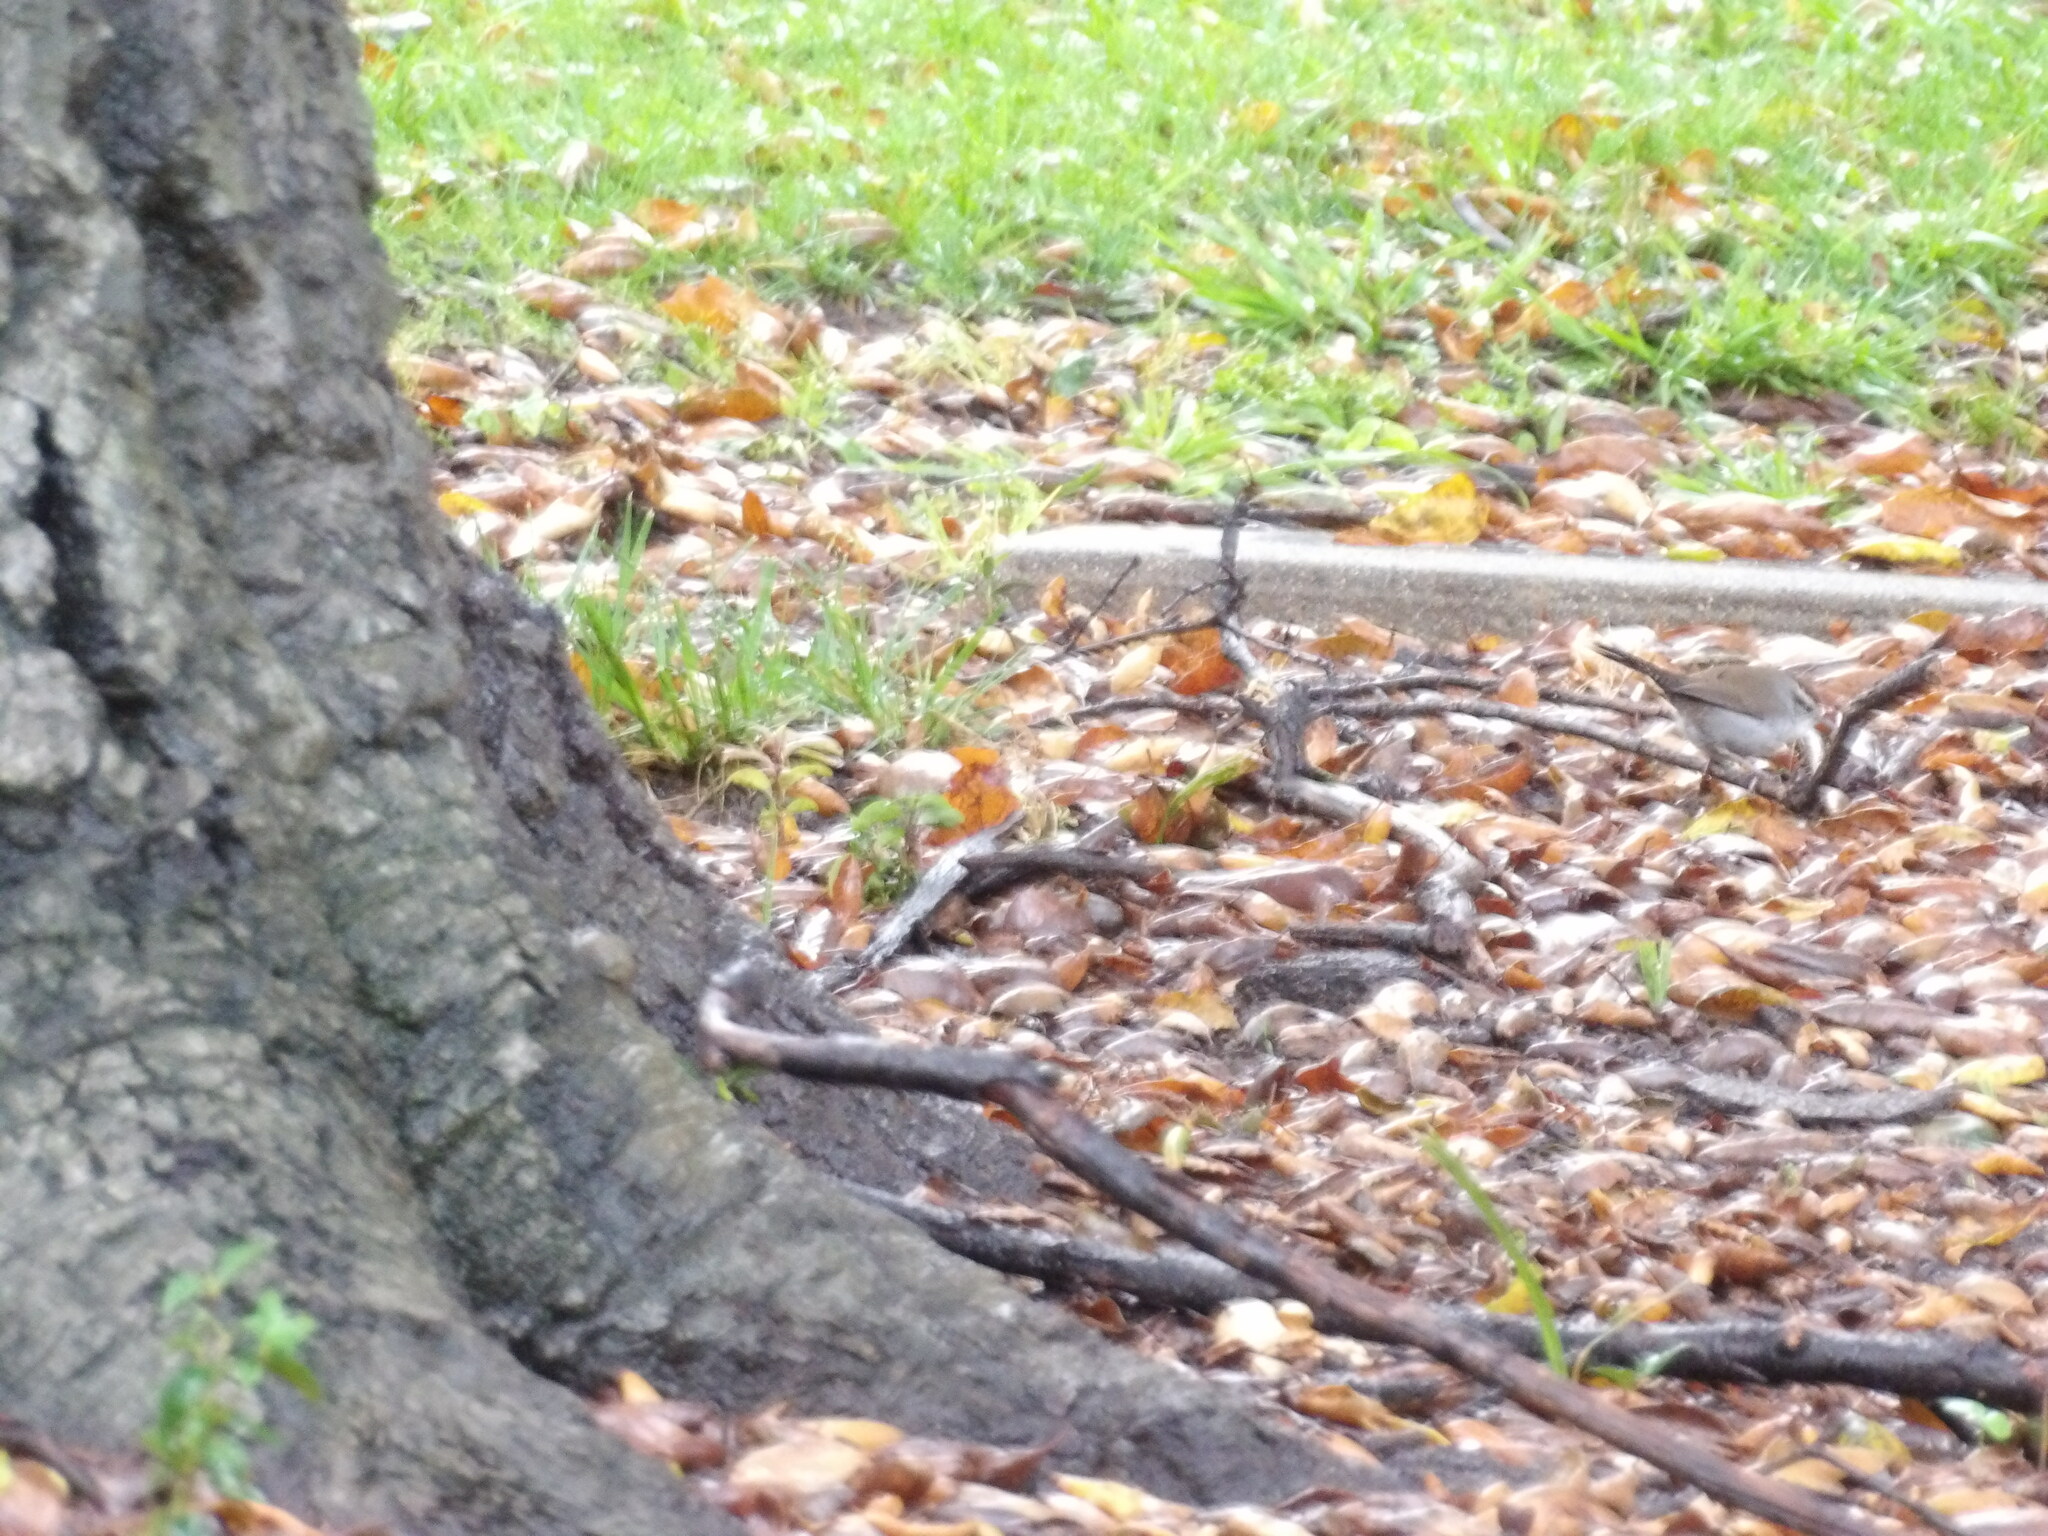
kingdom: Animalia
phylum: Chordata
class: Aves
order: Passeriformes
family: Troglodytidae
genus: Thryomanes
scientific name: Thryomanes bewickii
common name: Bewick's wren
